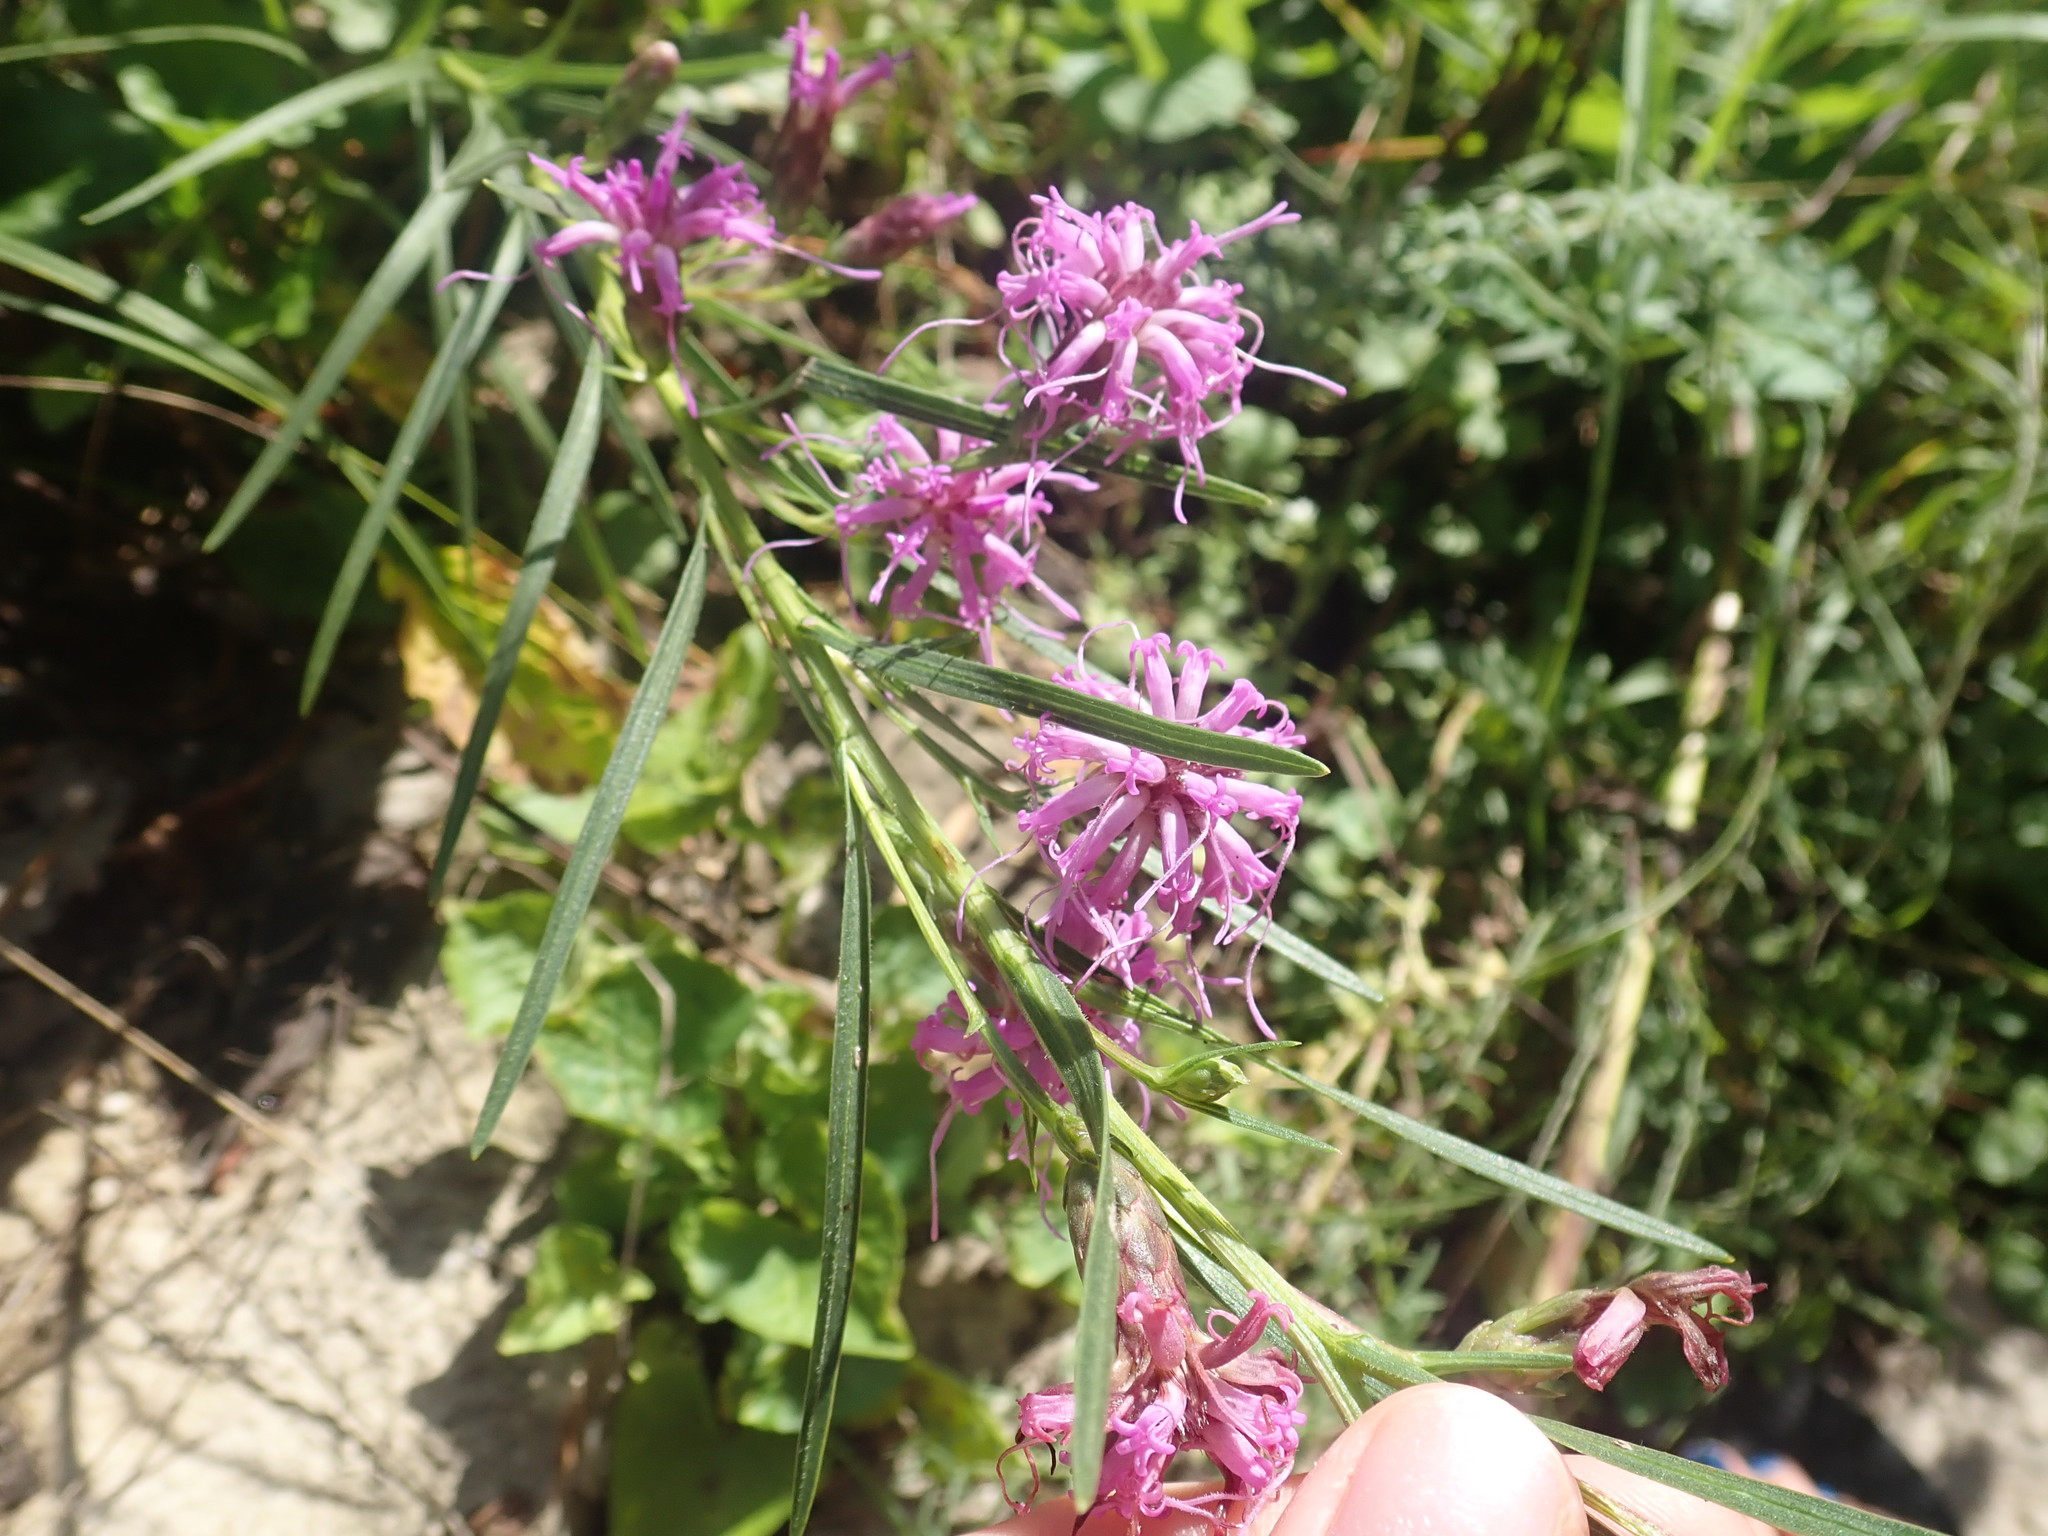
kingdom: Plantae
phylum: Tracheophyta
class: Magnoliopsida
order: Asterales
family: Asteraceae
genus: Liatris
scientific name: Liatris cylindracea
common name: Few-head blazingstar
